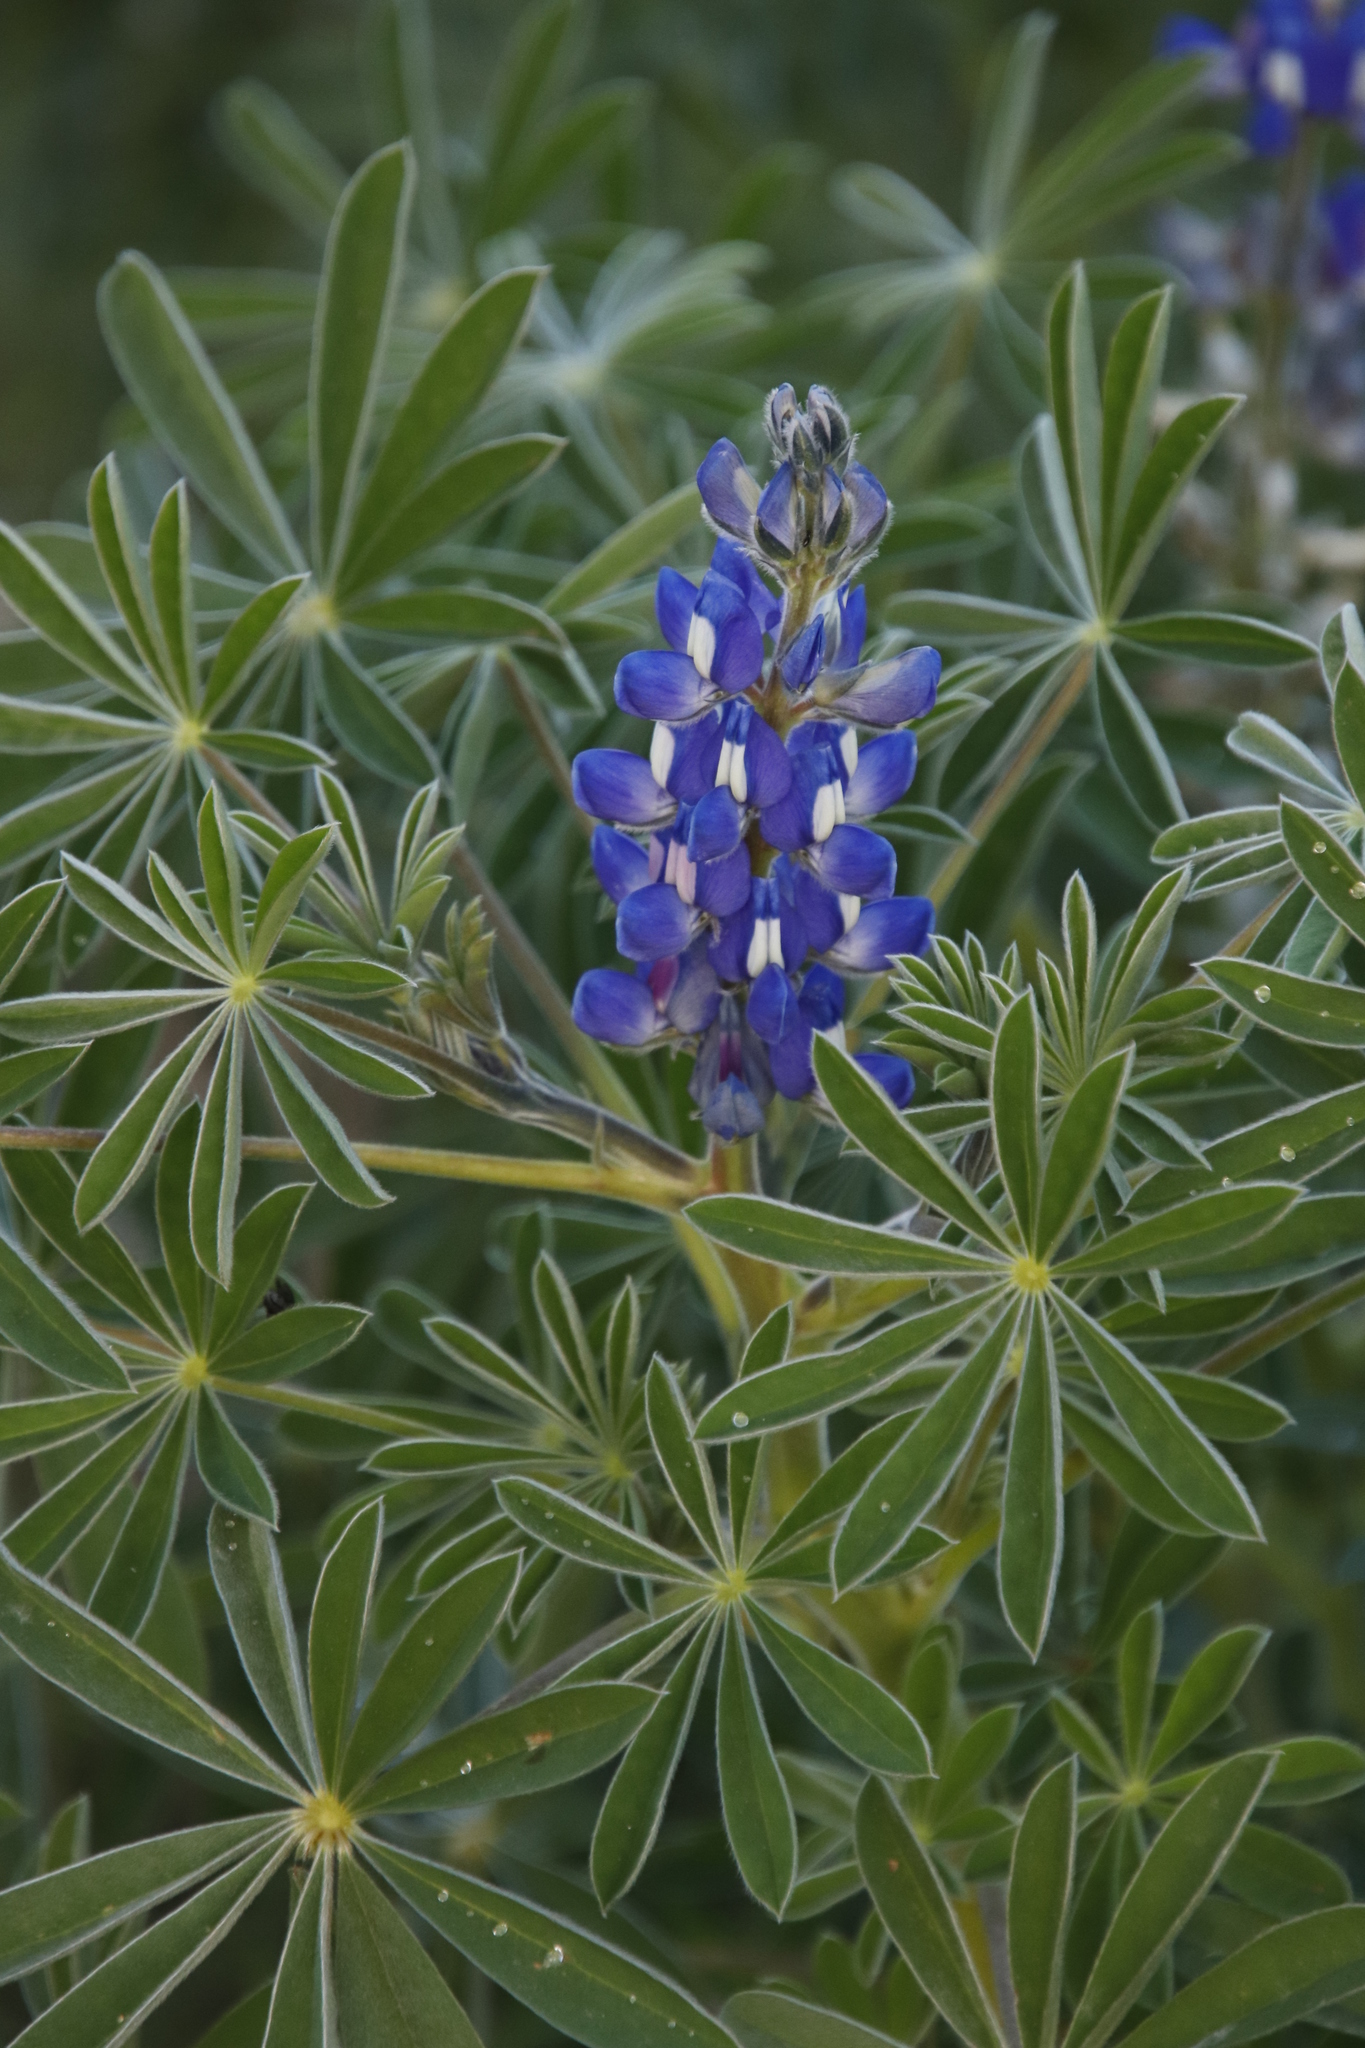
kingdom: Plantae
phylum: Tracheophyta
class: Magnoliopsida
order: Fabales
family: Fabaceae
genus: Lupinus
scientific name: Lupinus cosentinii
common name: Hairy blue lupin
